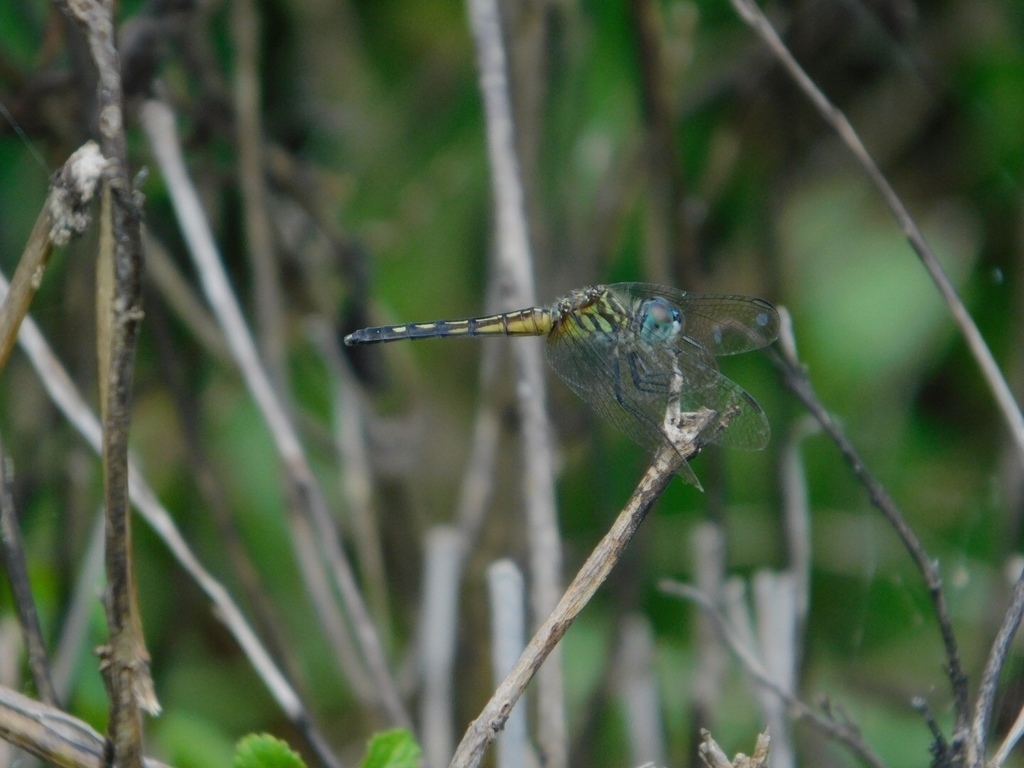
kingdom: Animalia
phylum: Arthropoda
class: Insecta
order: Odonata
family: Libellulidae
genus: Pachydiplax
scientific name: Pachydiplax longipennis
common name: Blue dasher
